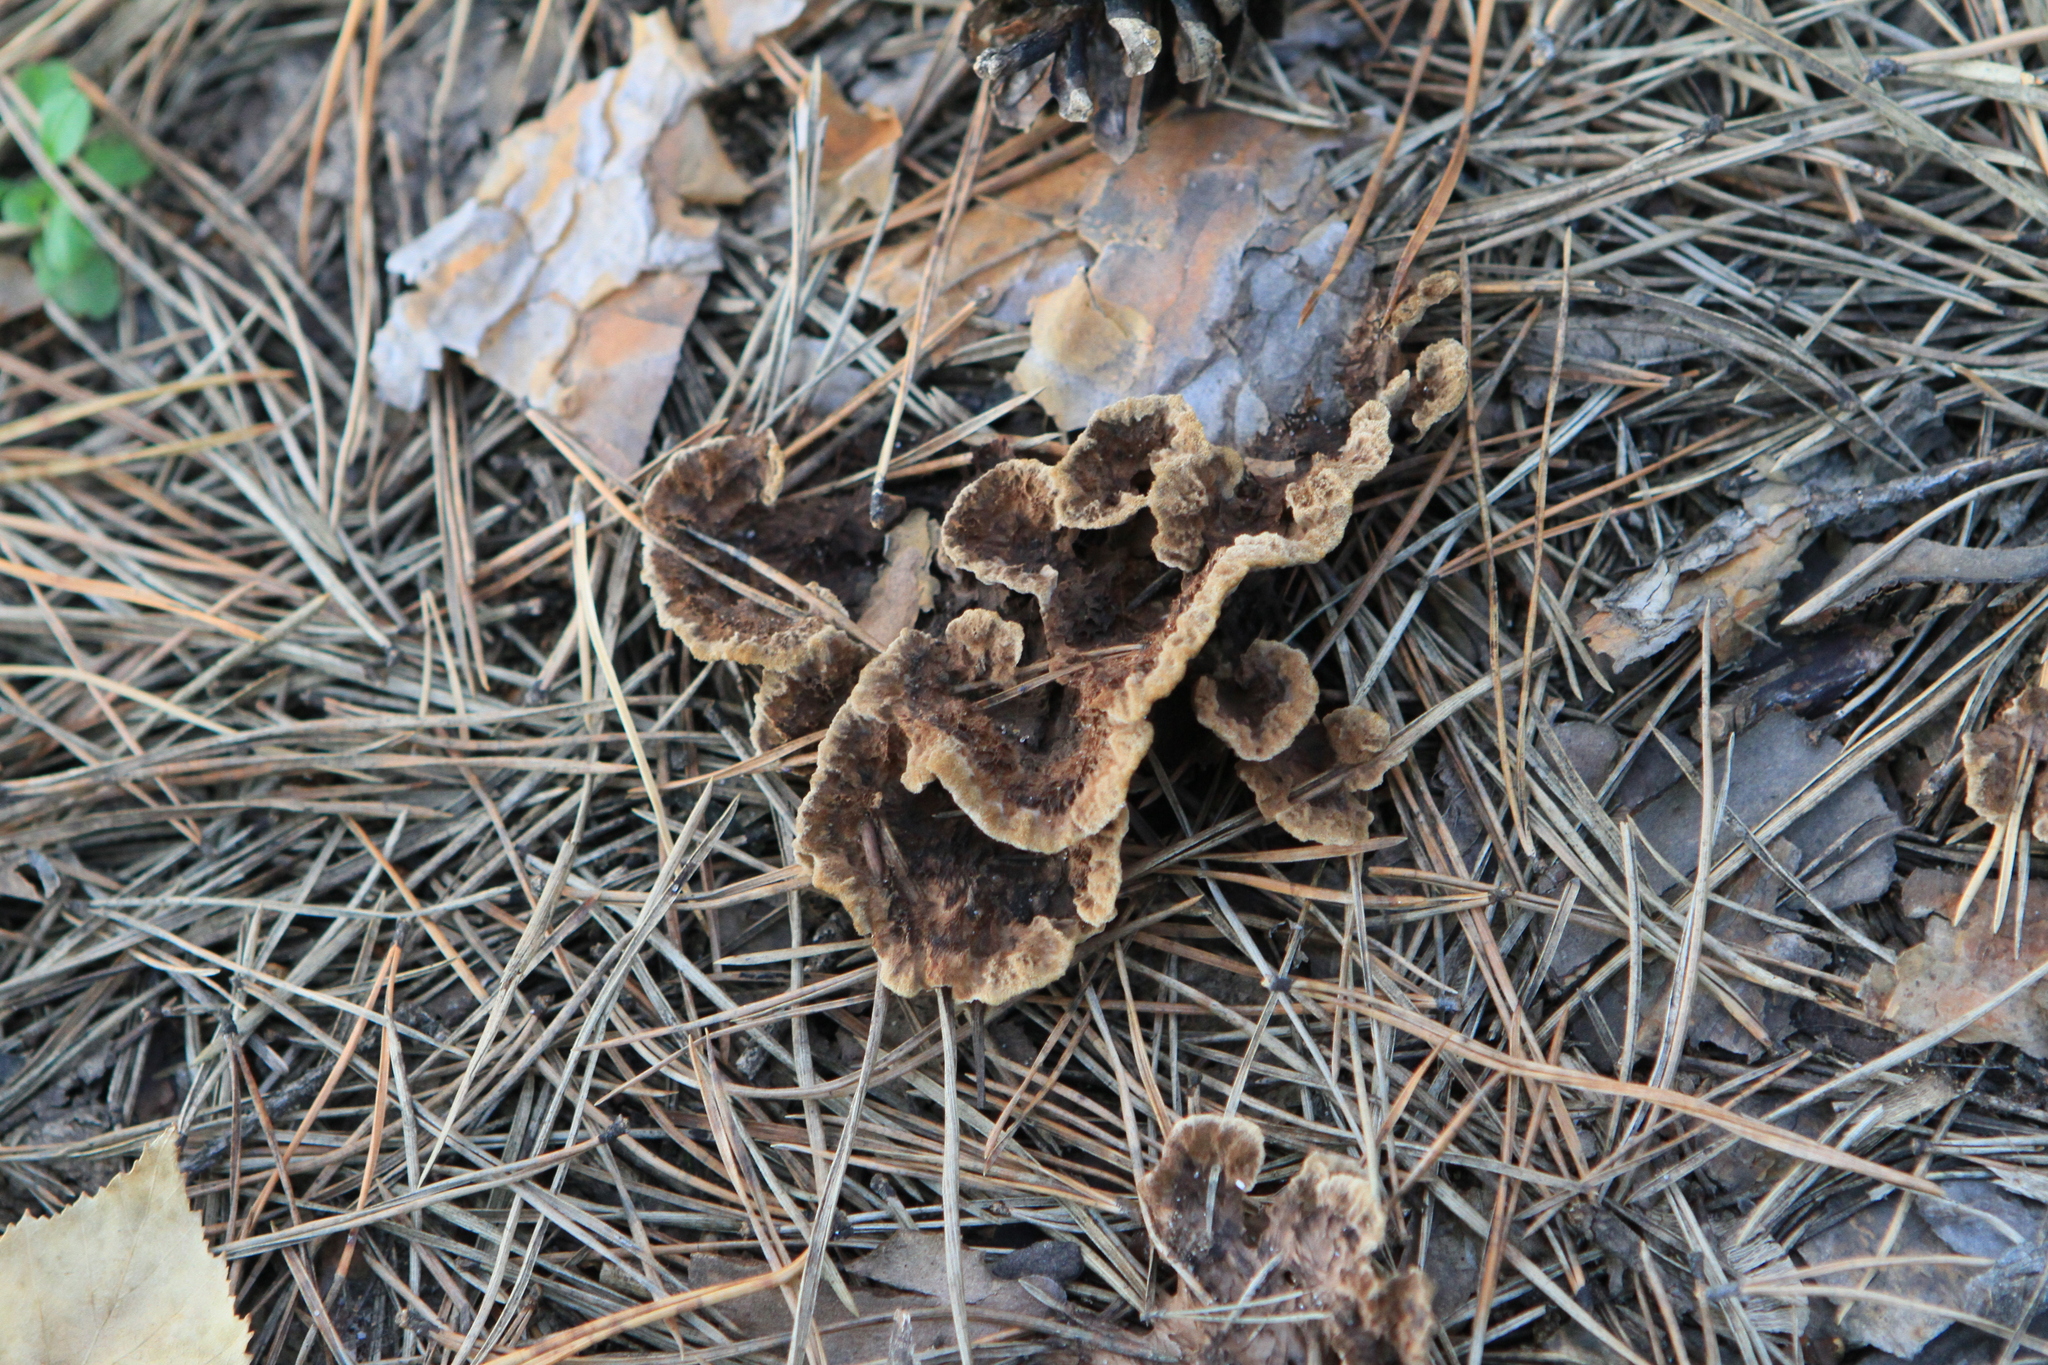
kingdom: Fungi
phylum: Basidiomycota
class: Agaricomycetes
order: Thelephorales
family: Thelephoraceae
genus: Thelephora
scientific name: Thelephora terrestris
